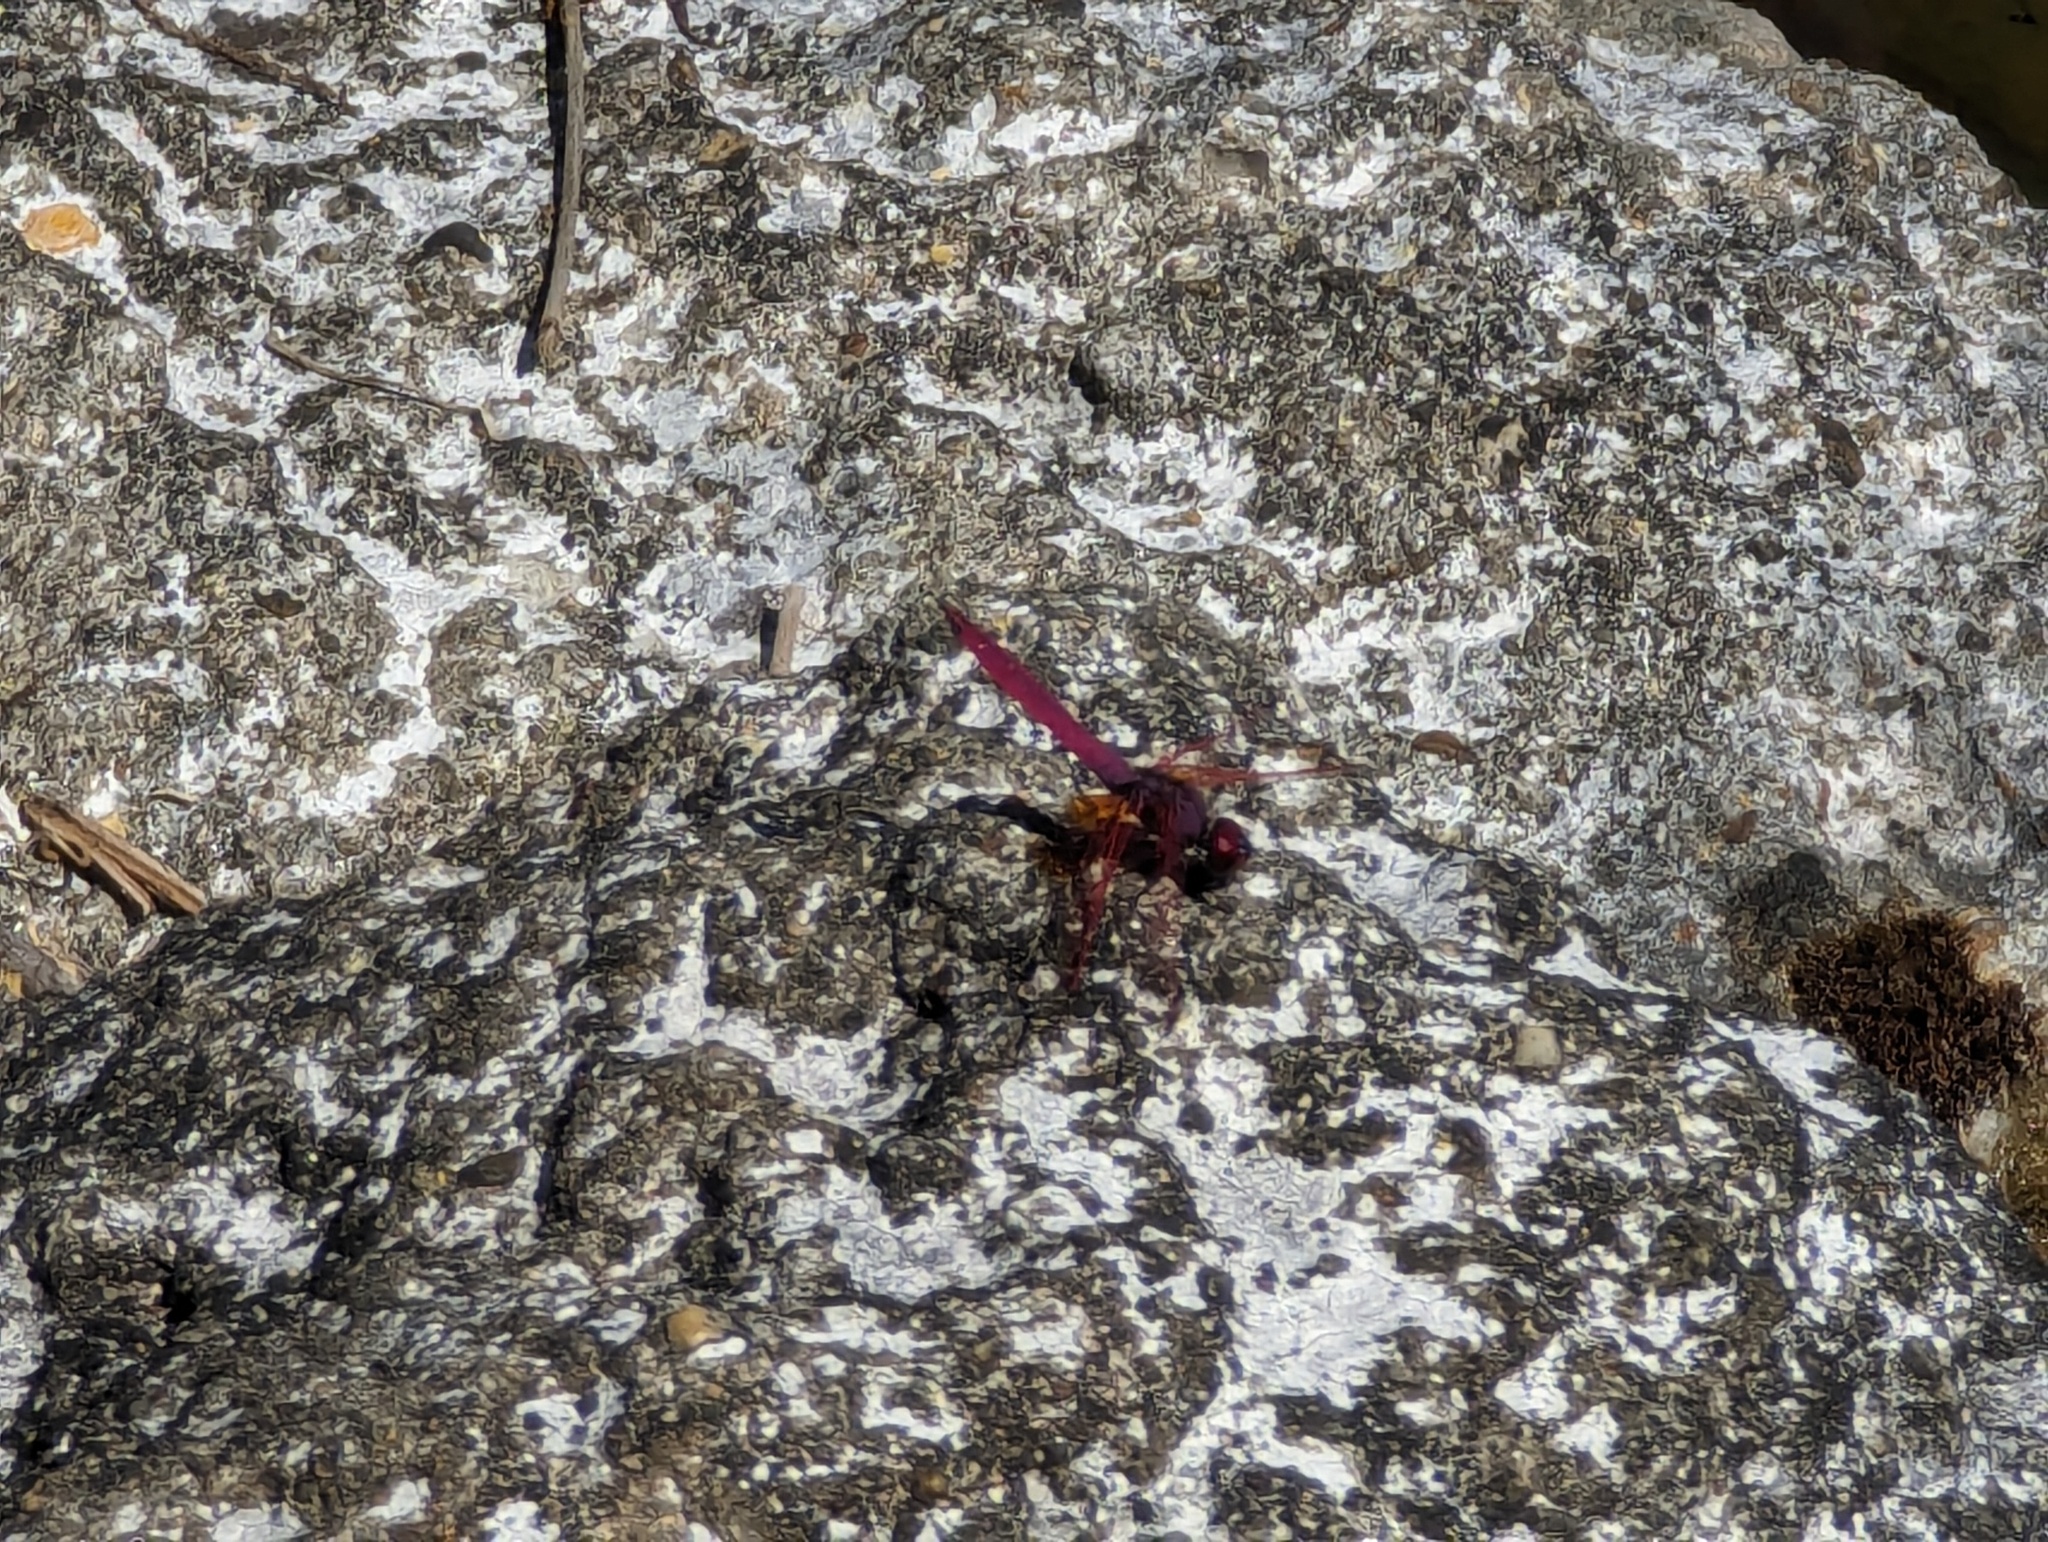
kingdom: Animalia
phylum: Arthropoda
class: Insecta
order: Odonata
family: Libellulidae
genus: Trithemis
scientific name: Trithemis aurora
